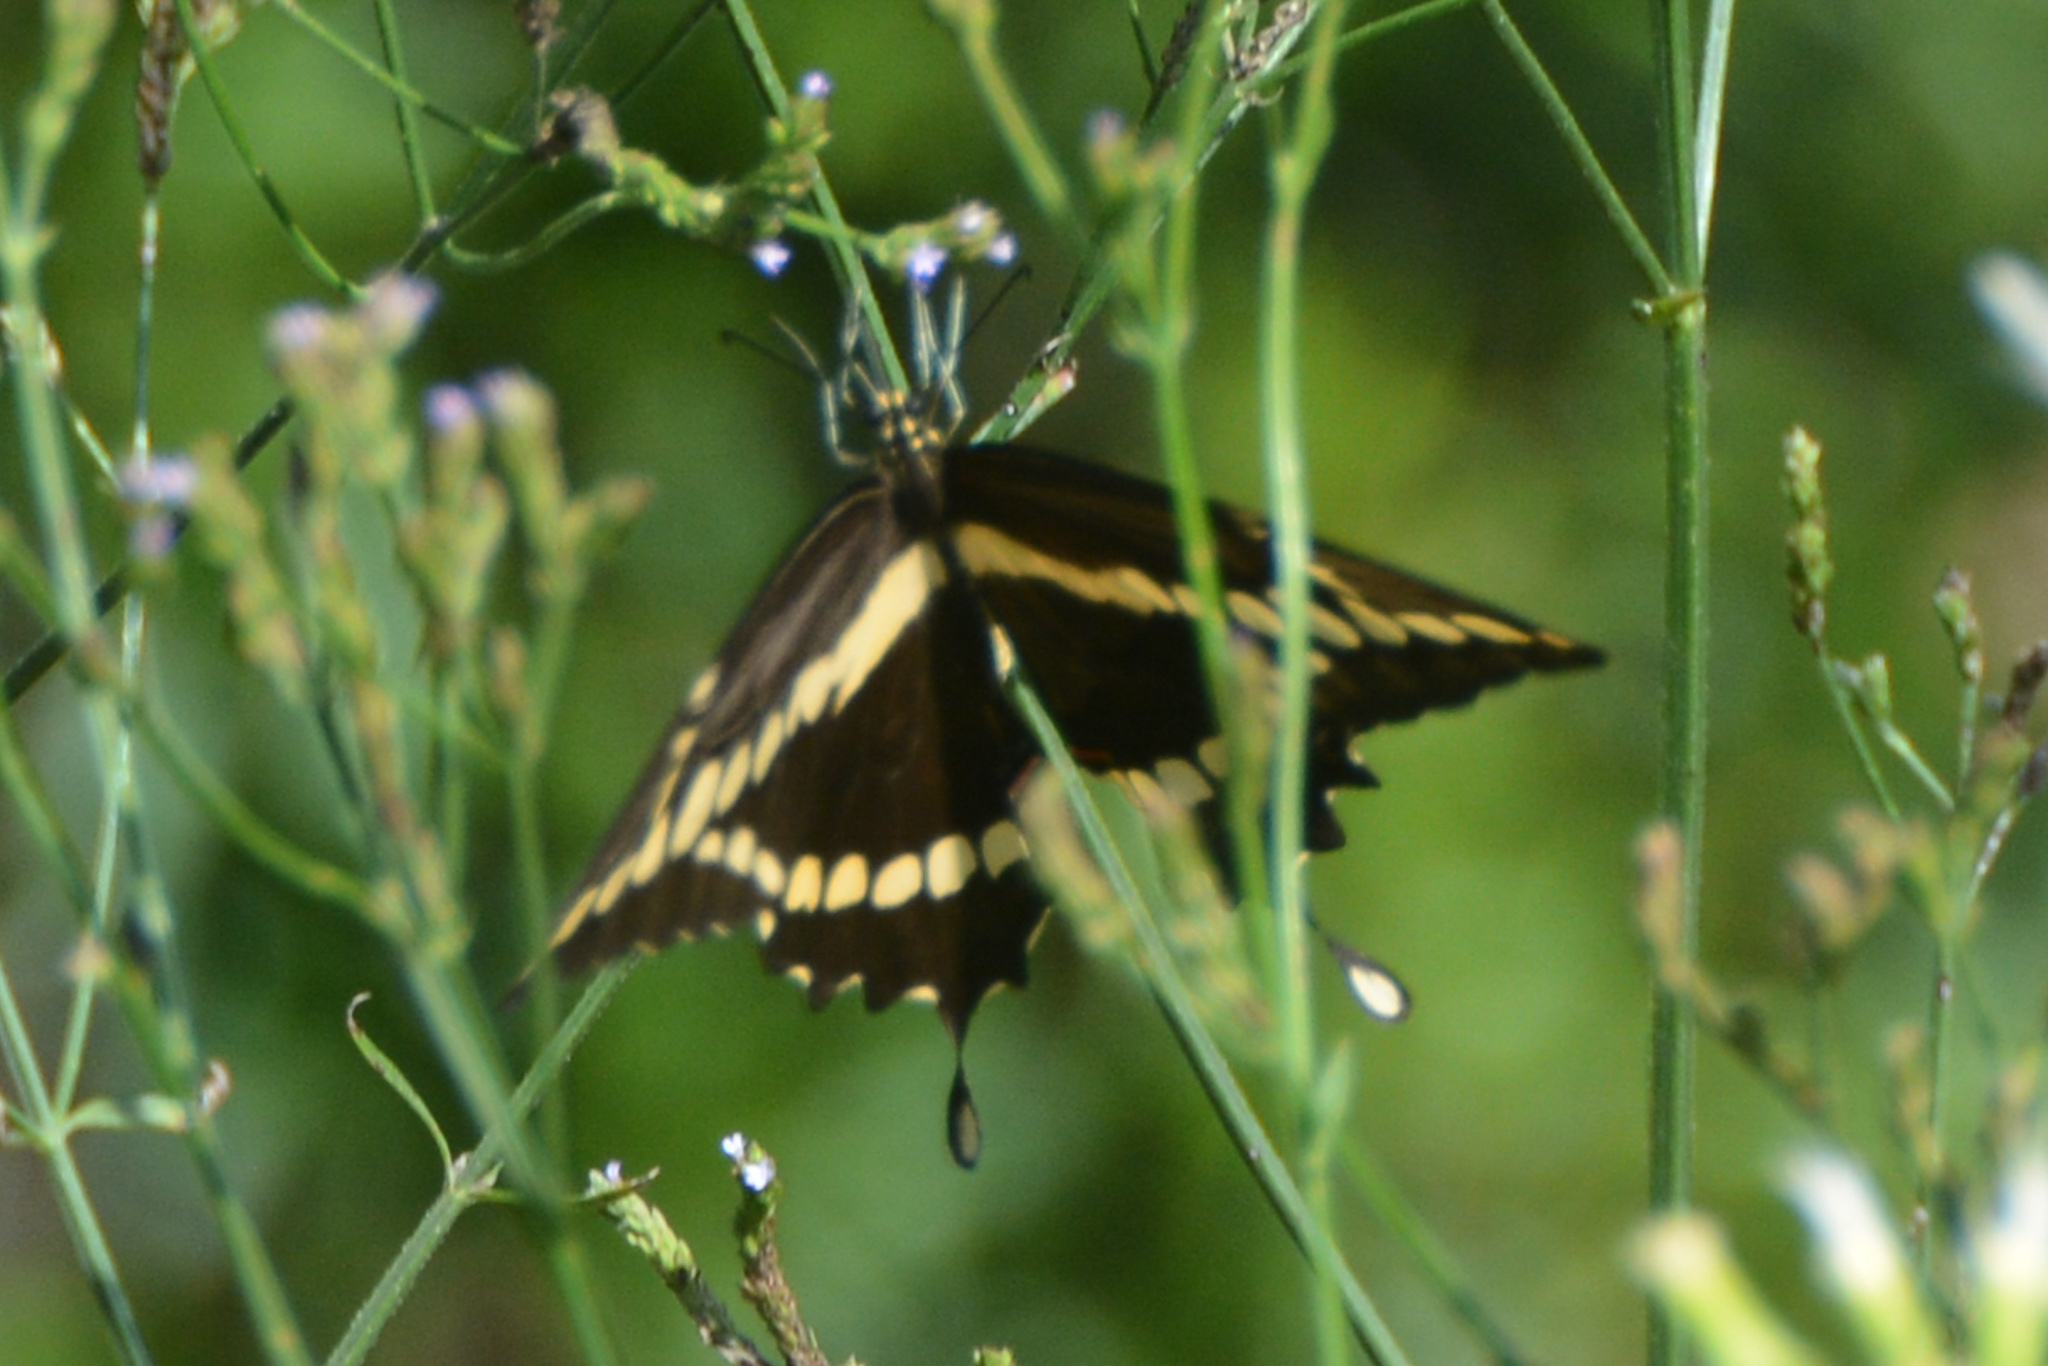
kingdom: Animalia
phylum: Arthropoda
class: Insecta
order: Lepidoptera
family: Papilionidae
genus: Papilio
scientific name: Papilio cresphontes
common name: Giant swallowtail
